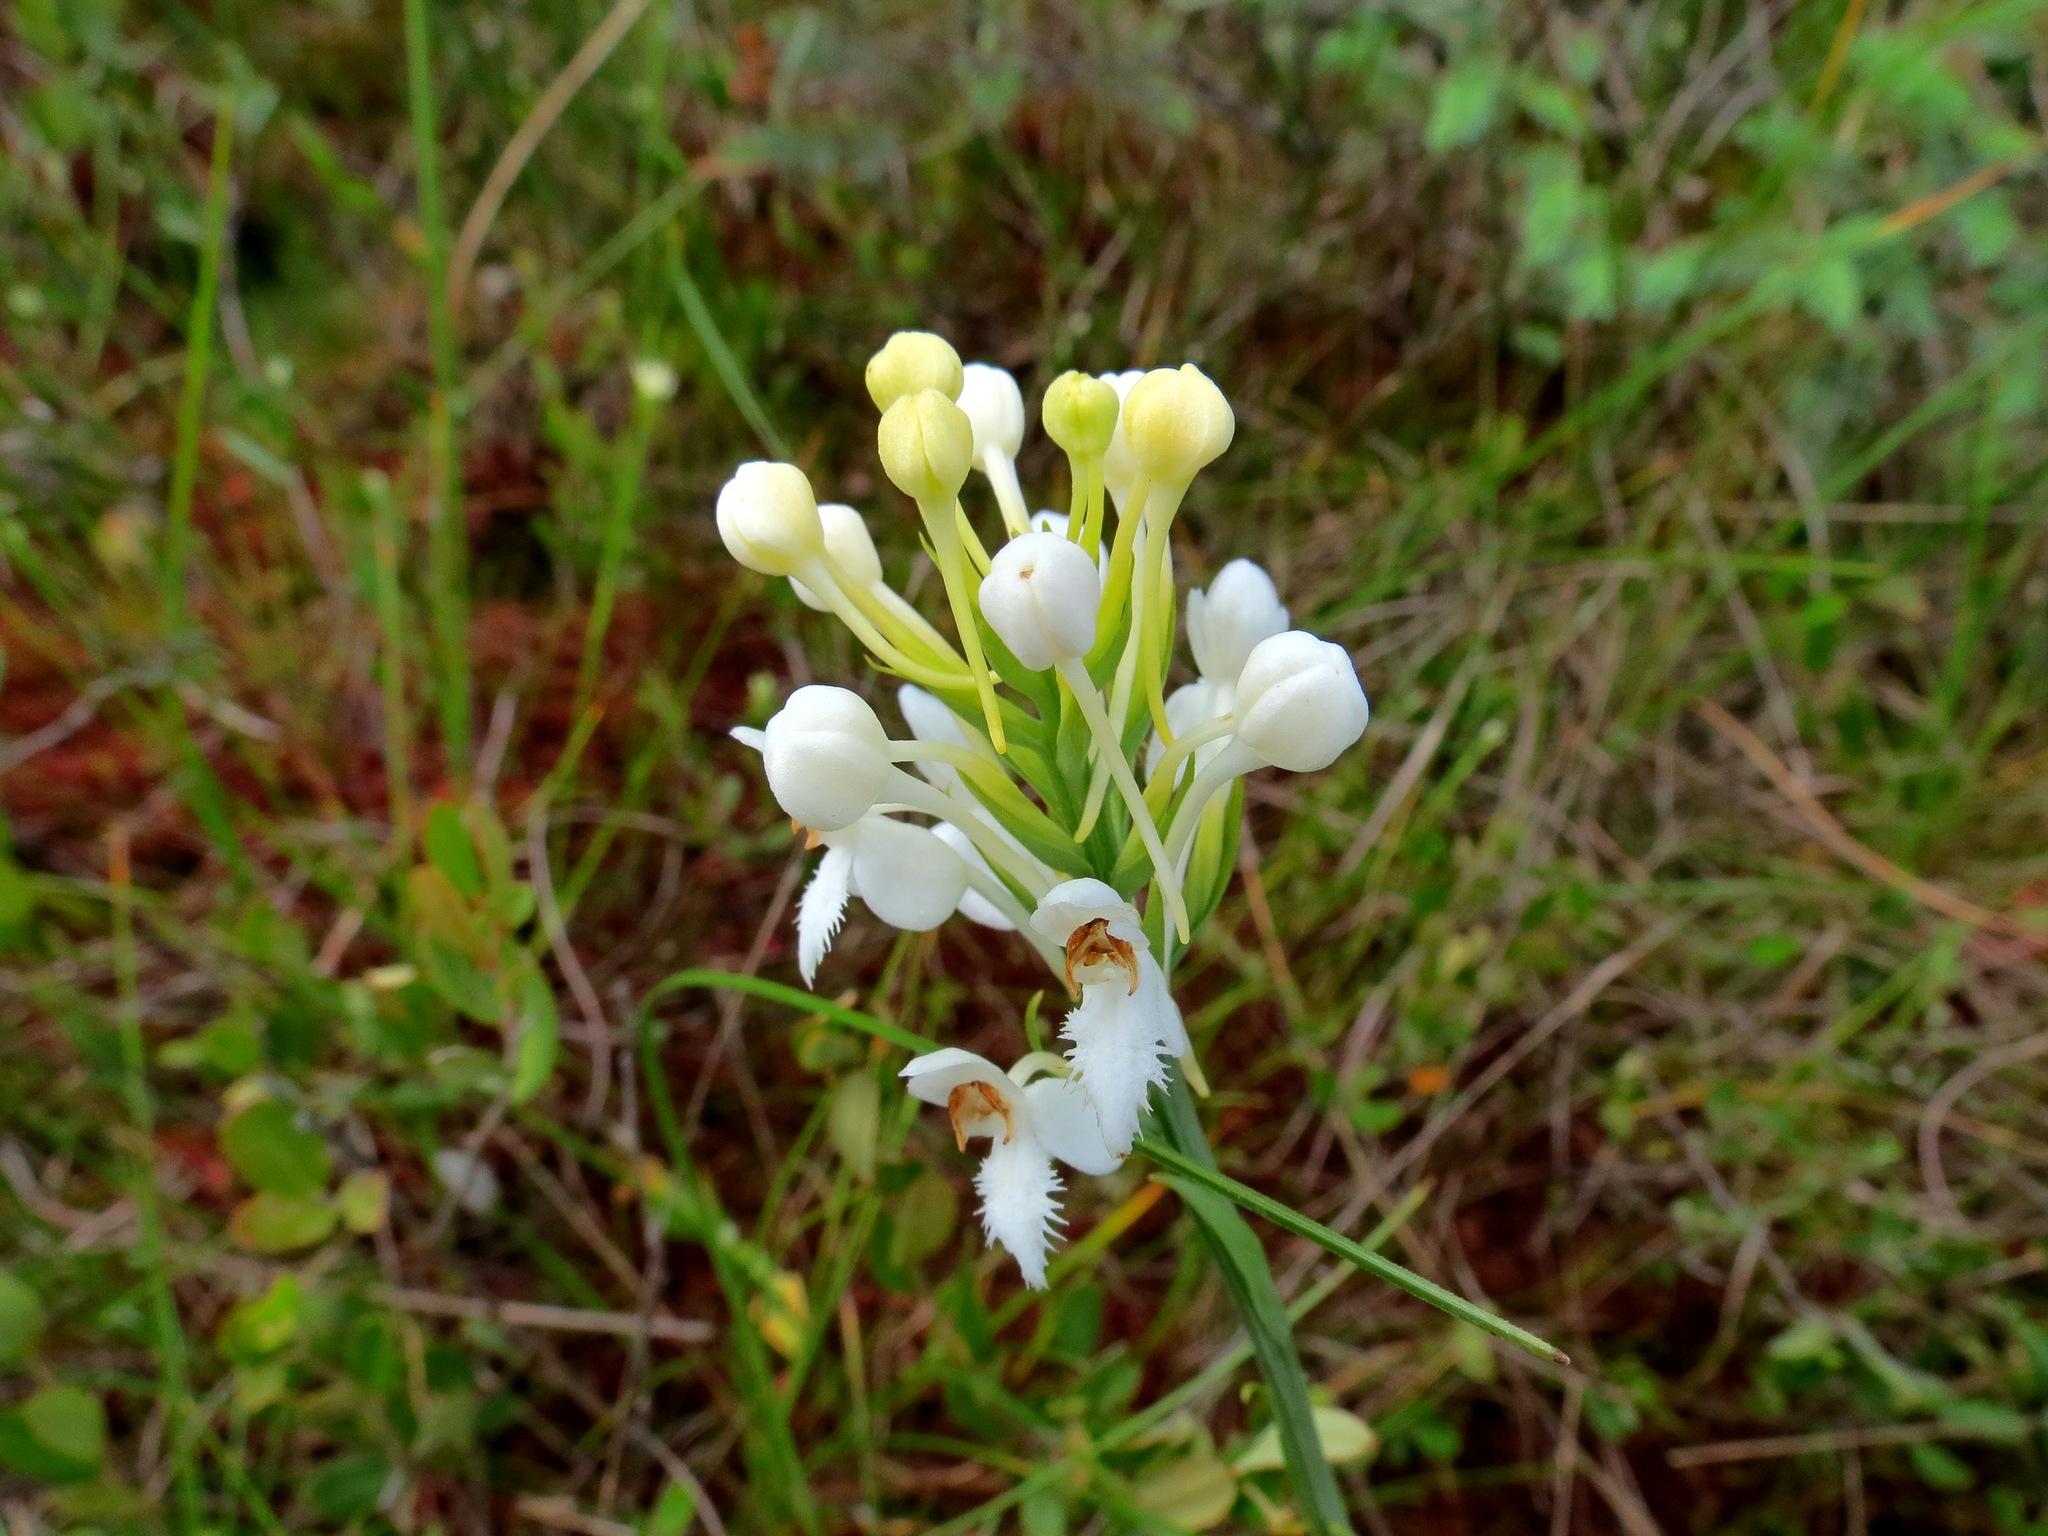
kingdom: Plantae
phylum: Tracheophyta
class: Liliopsida
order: Asparagales
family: Orchidaceae
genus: Platanthera
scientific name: Platanthera blephariglottis
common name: White fringed orchid
